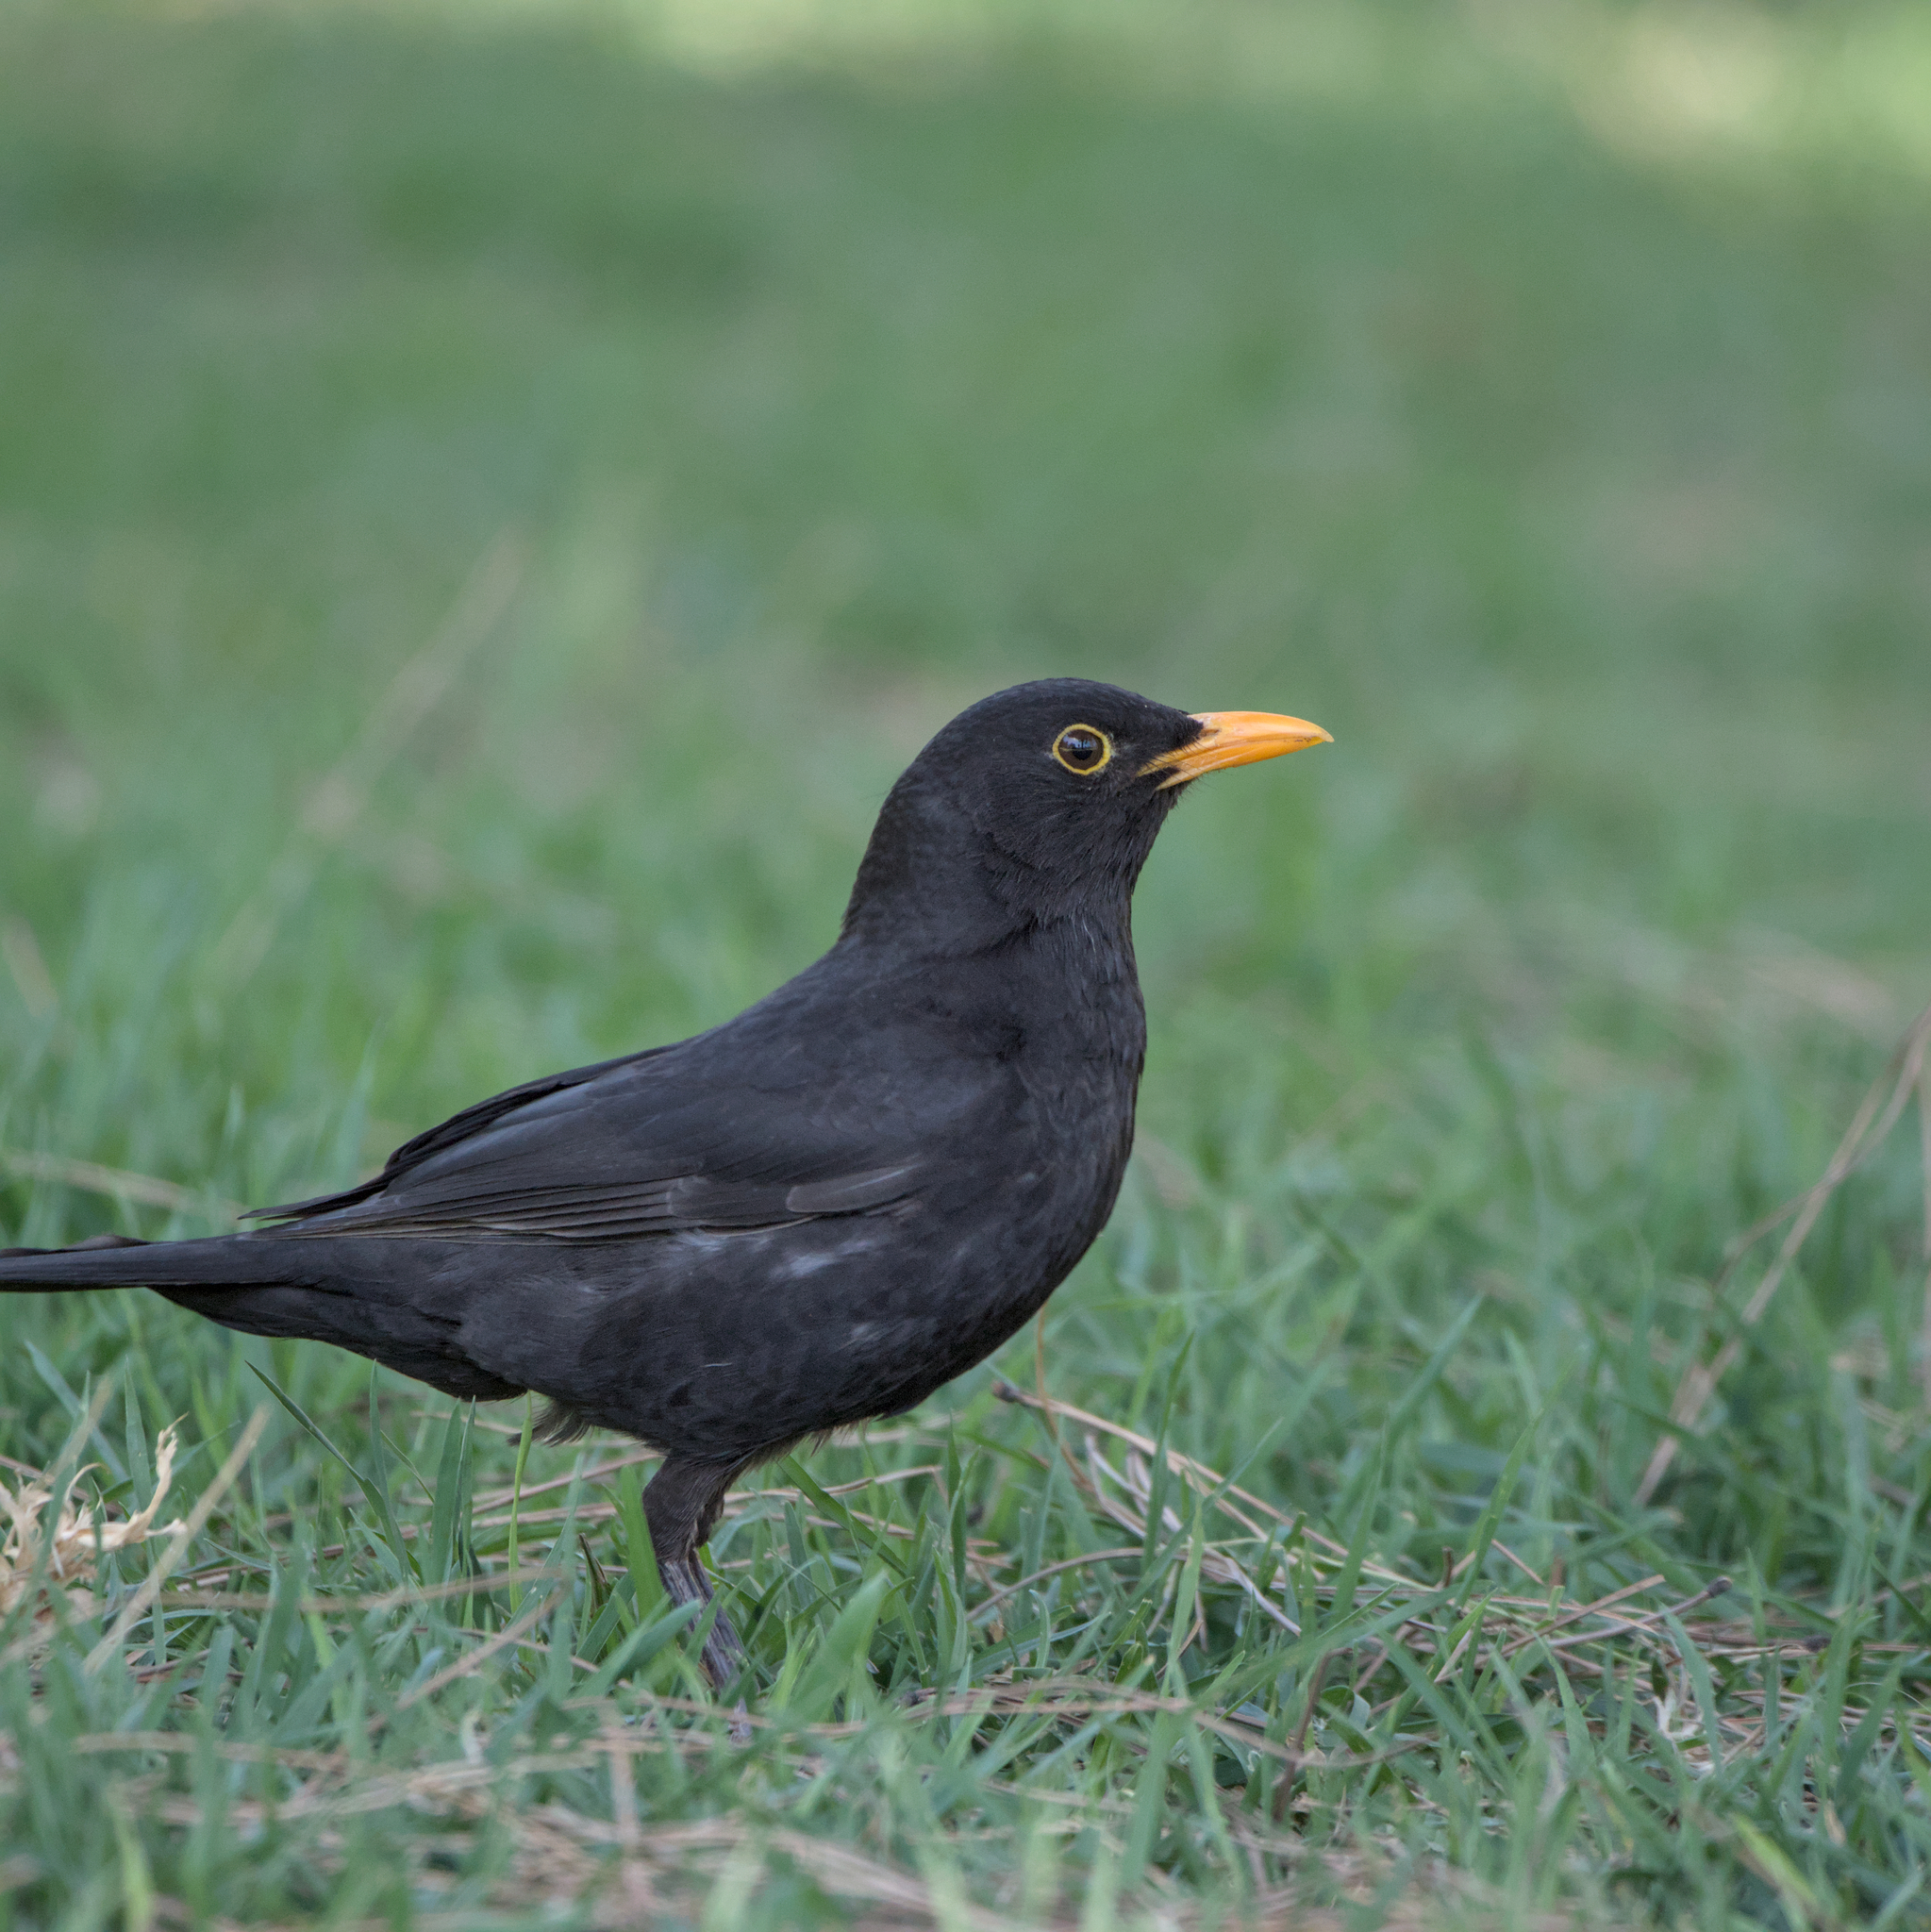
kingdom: Animalia
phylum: Chordata
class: Aves
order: Passeriformes
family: Turdidae
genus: Turdus
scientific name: Turdus merula
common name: Common blackbird
